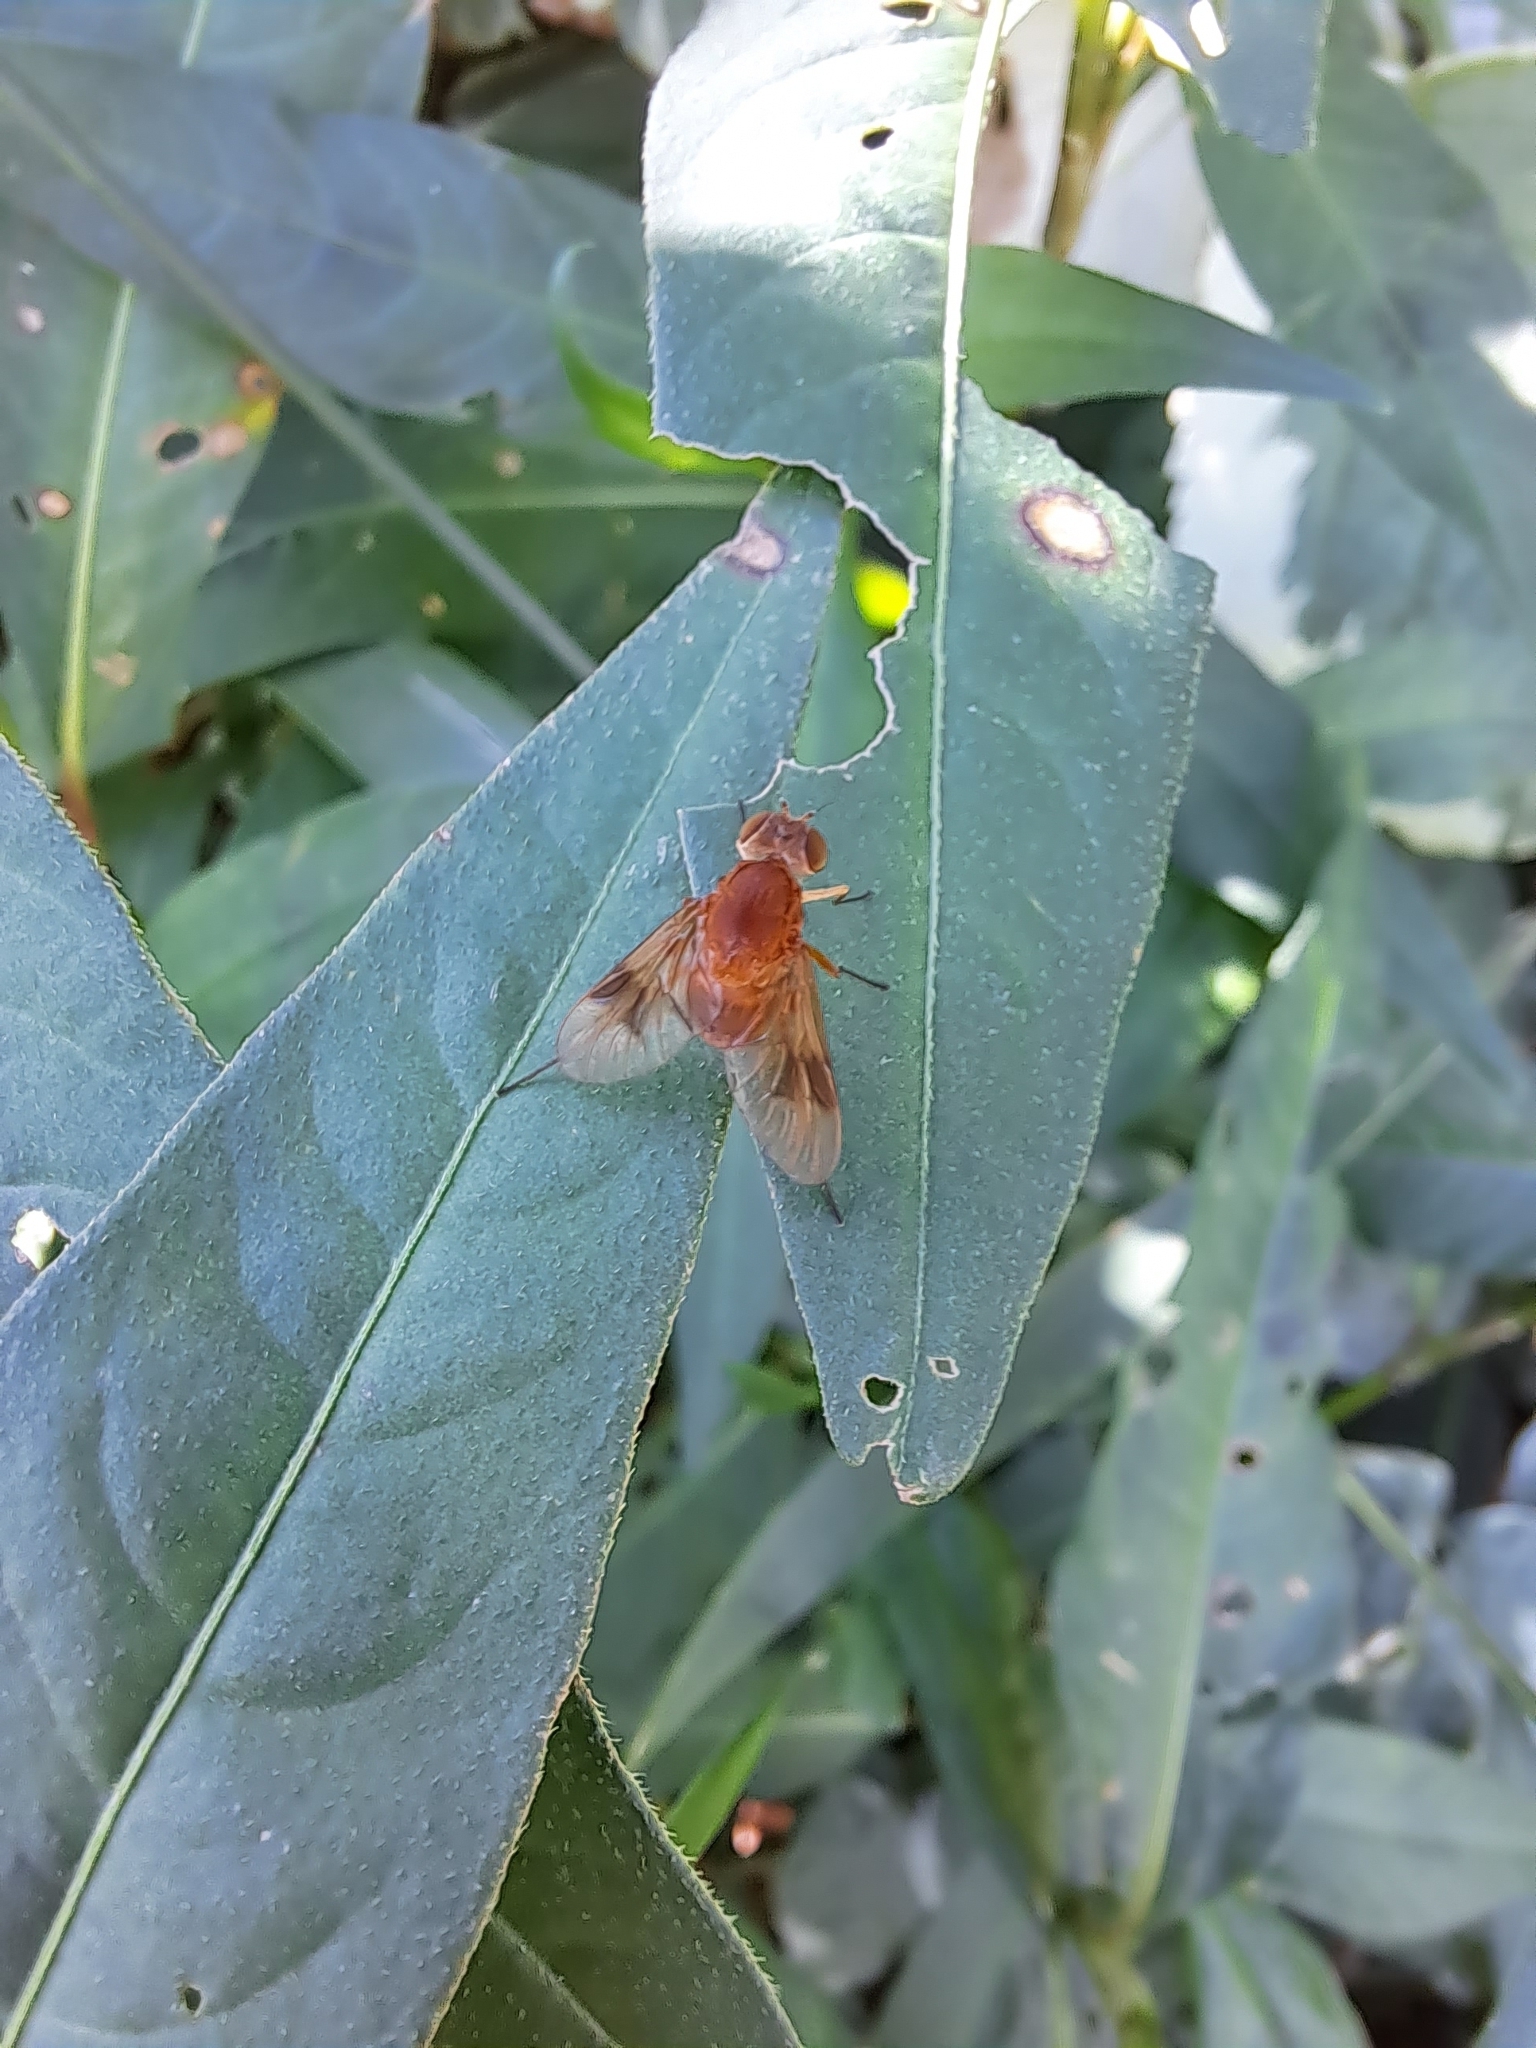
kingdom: Animalia
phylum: Arthropoda
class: Insecta
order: Diptera
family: Rhagionidae
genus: Chrysopilus
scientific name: Chrysopilus quadratus
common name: Quadrate snipe fly
